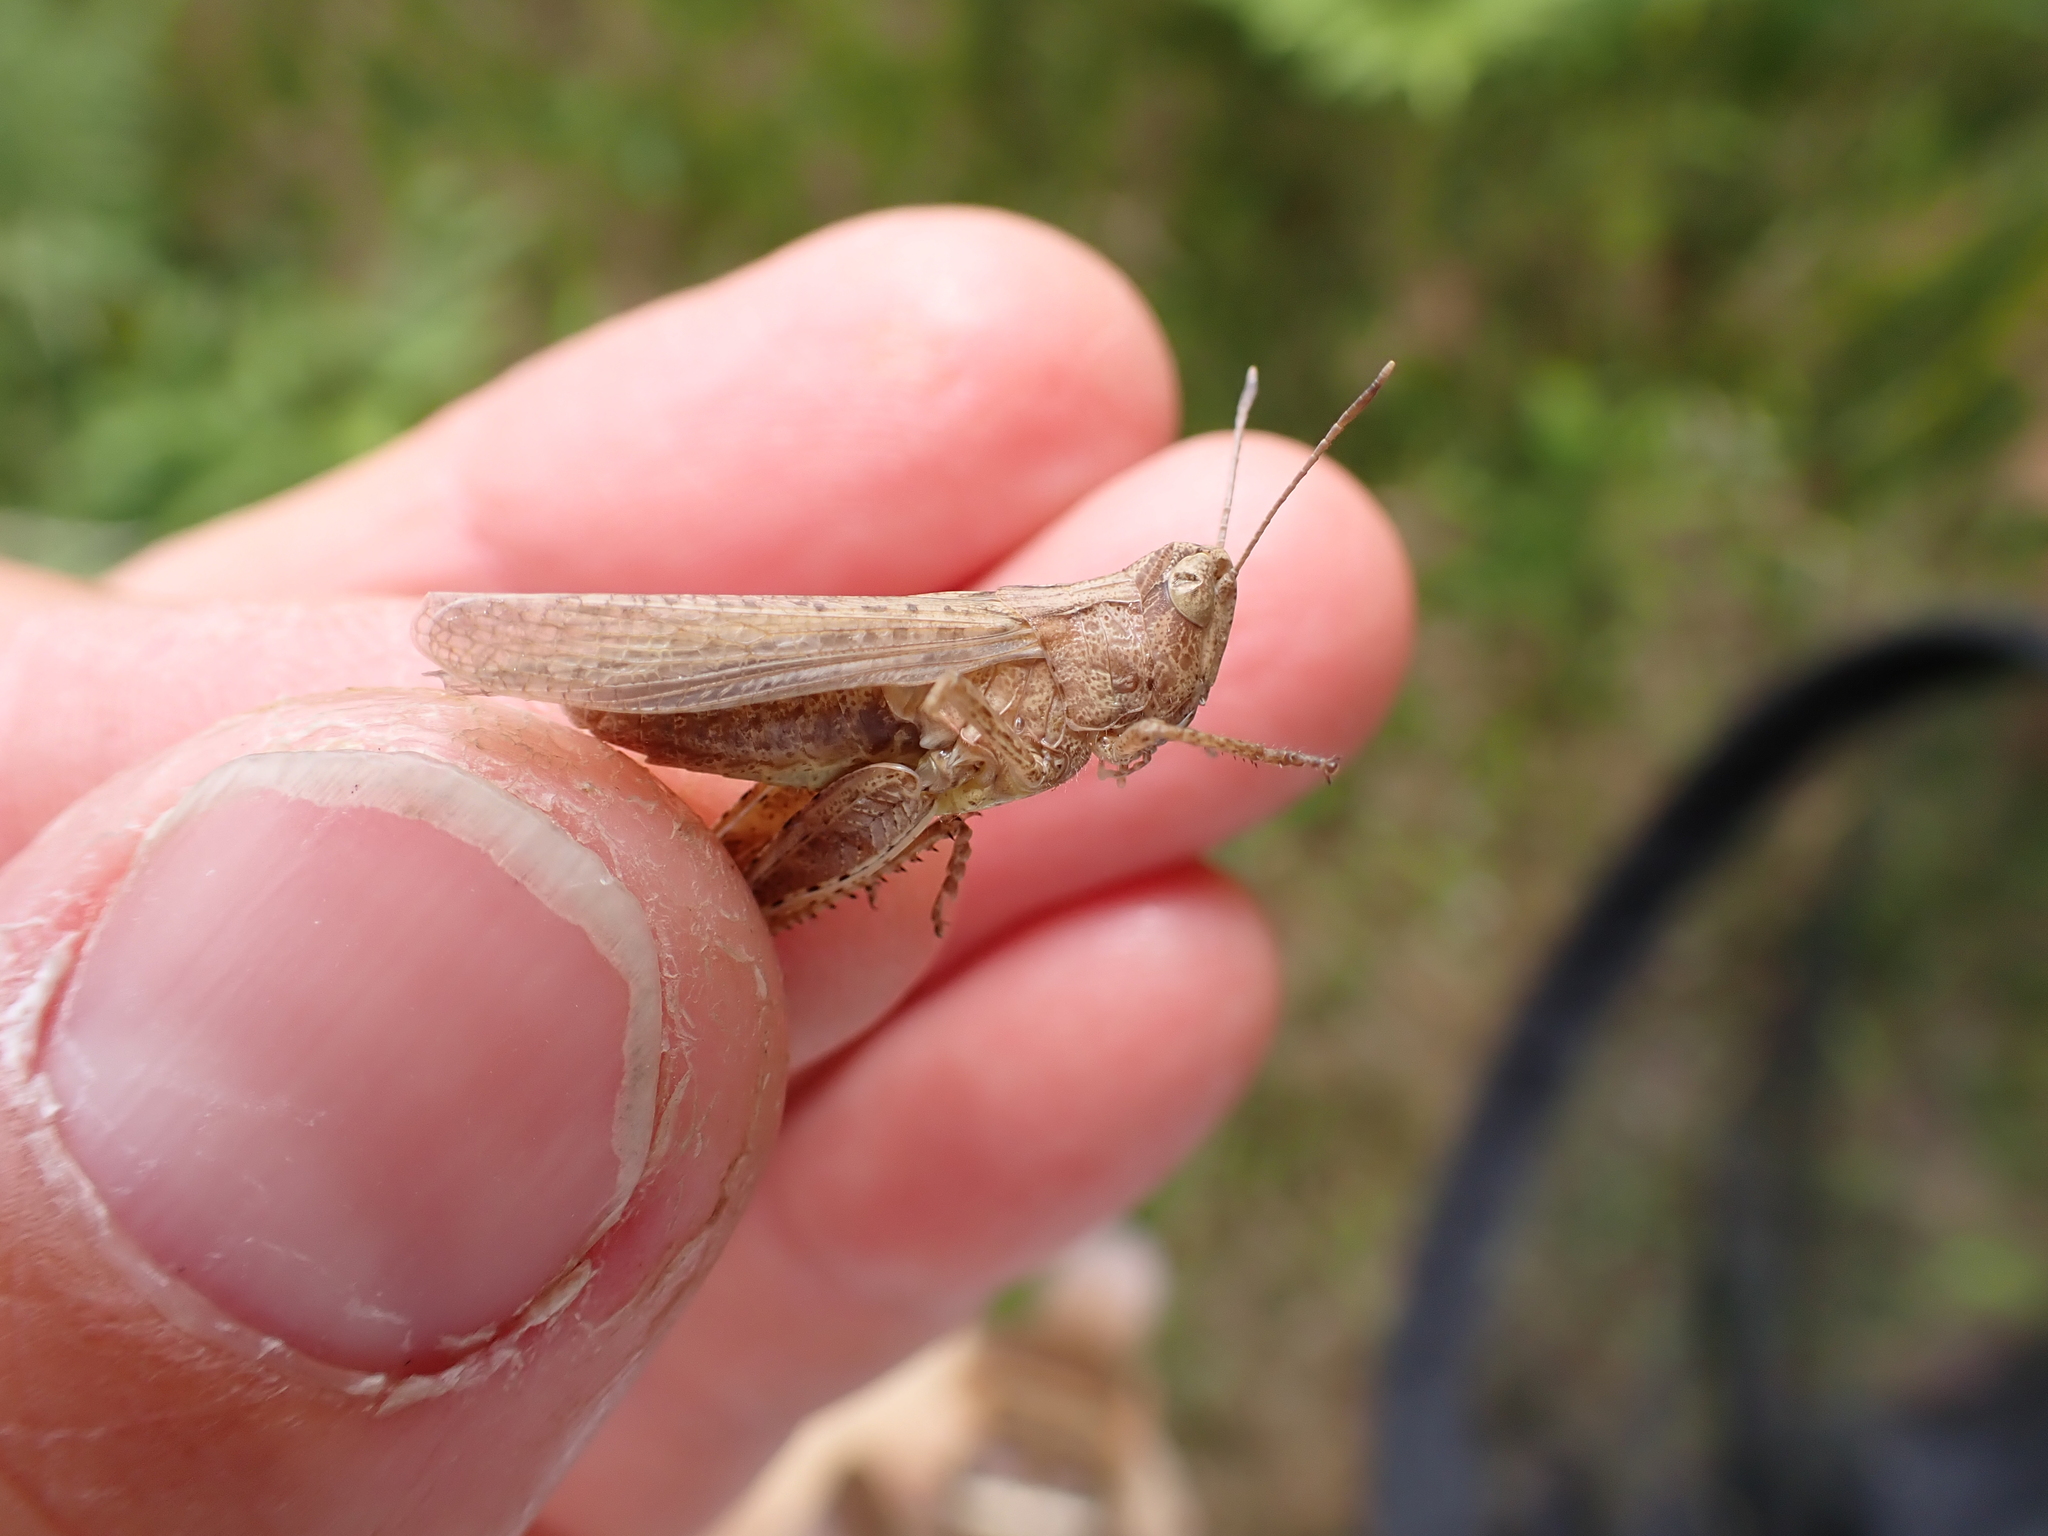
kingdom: Animalia
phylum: Arthropoda
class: Insecta
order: Orthoptera
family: Acrididae
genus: Gomphocerippus
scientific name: Gomphocerippus rufus
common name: Rufous grasshopper
